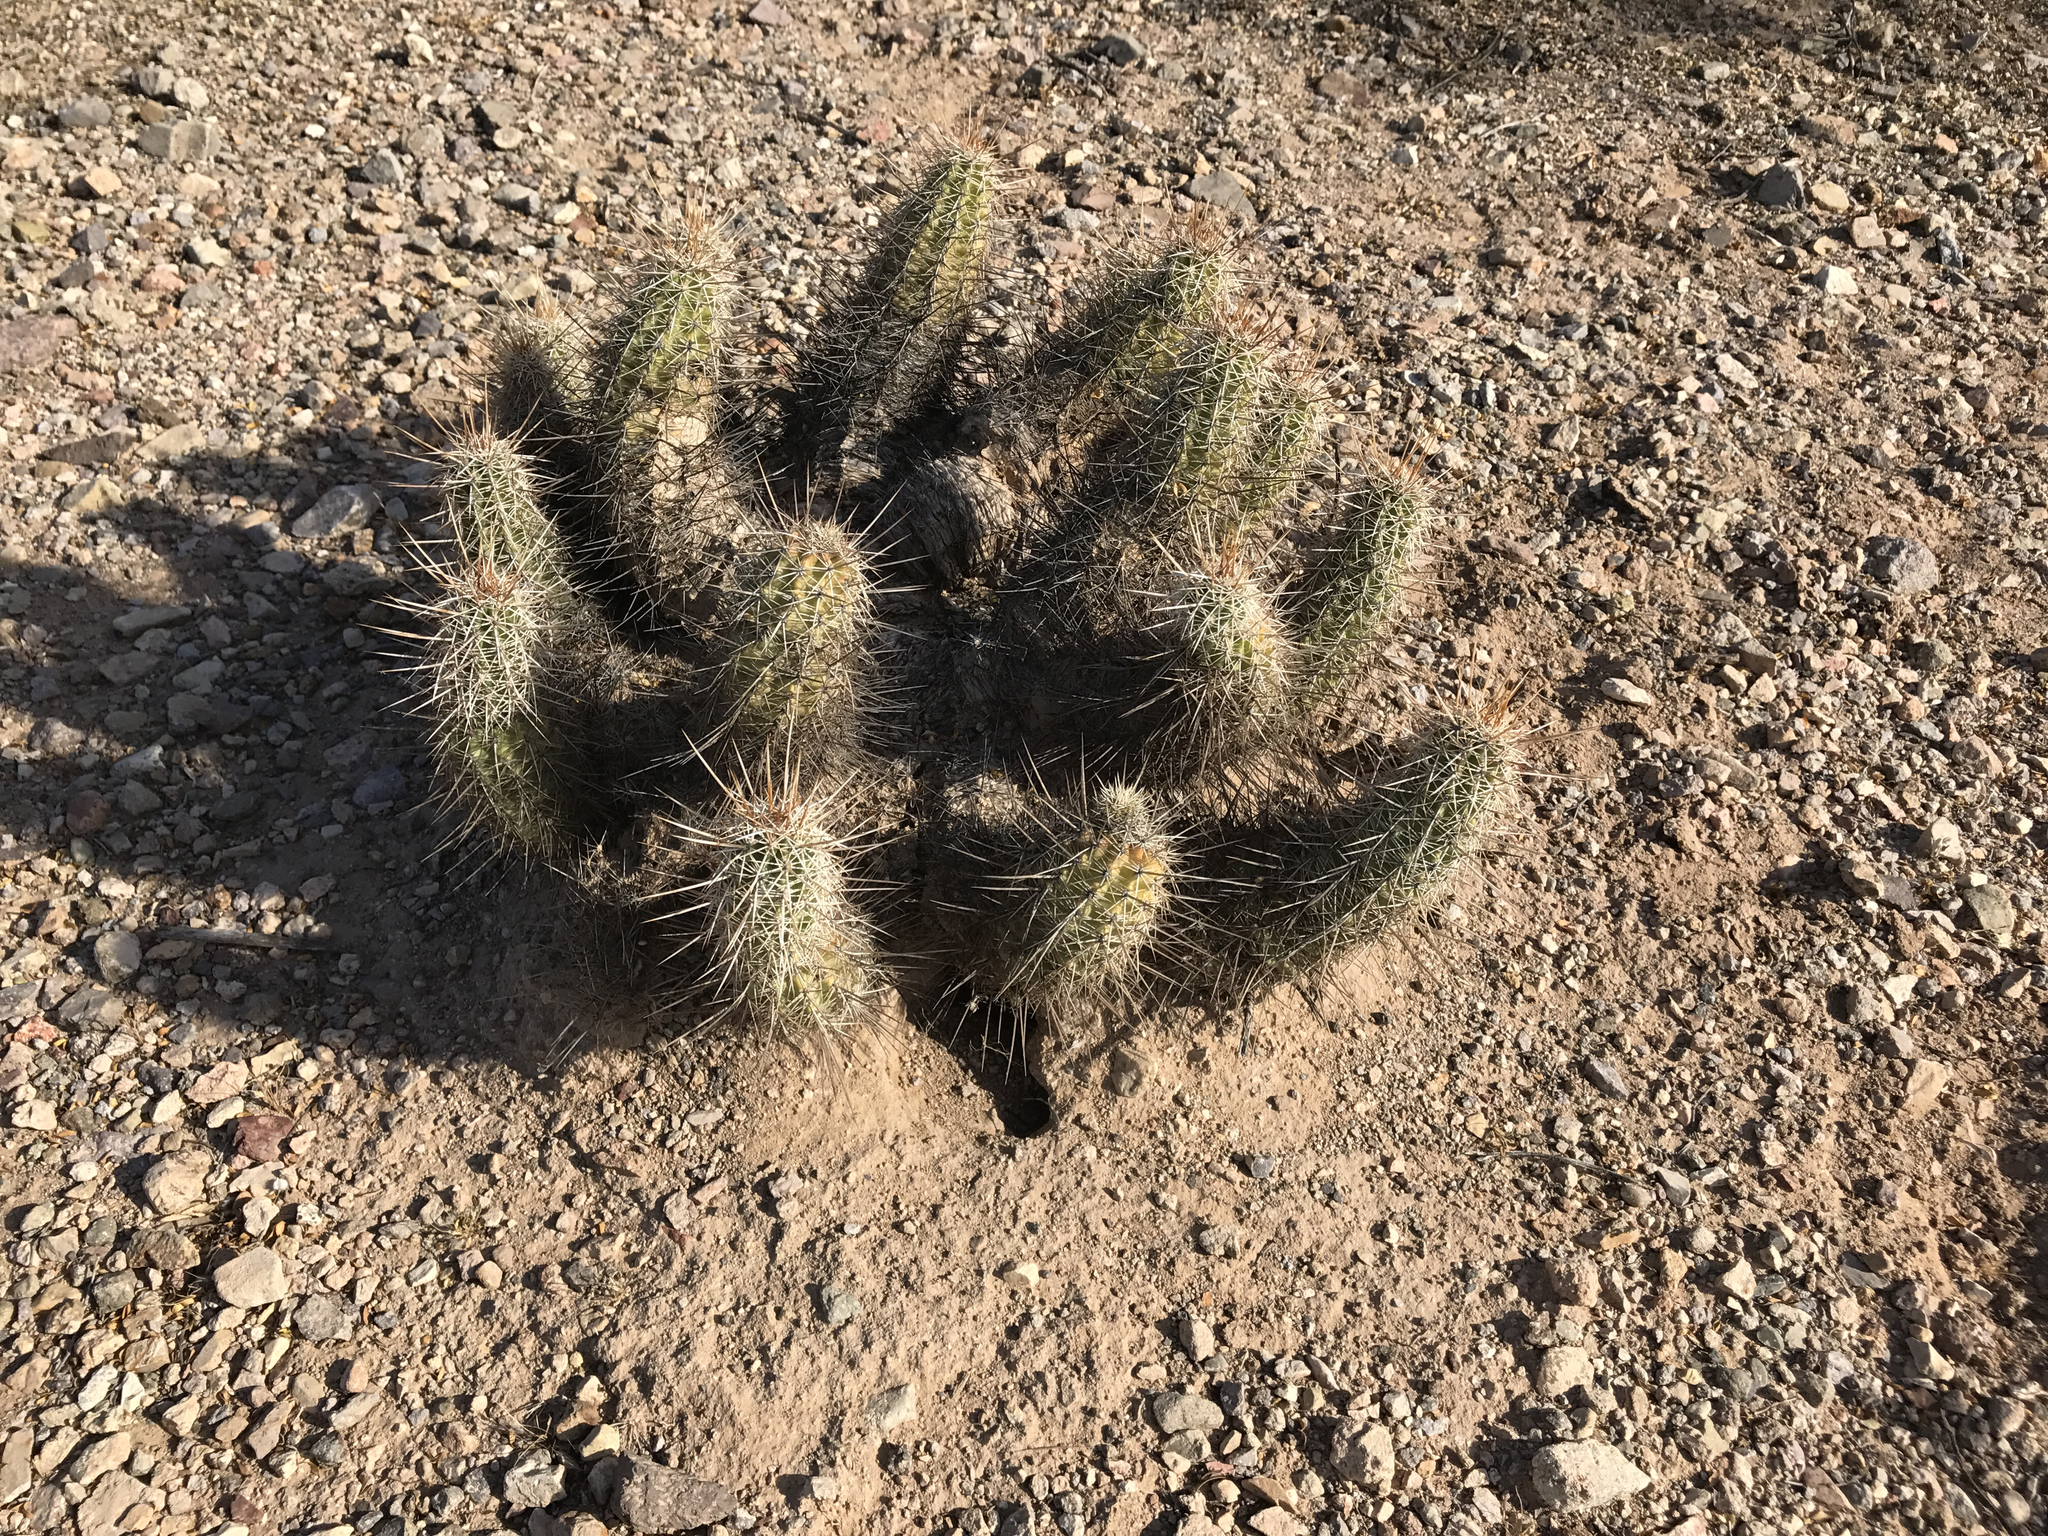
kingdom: Plantae
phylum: Tracheophyta
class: Magnoliopsida
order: Caryophyllales
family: Cactaceae
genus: Echinocereus
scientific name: Echinocereus fasciculatus
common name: Bundle hedgehog
